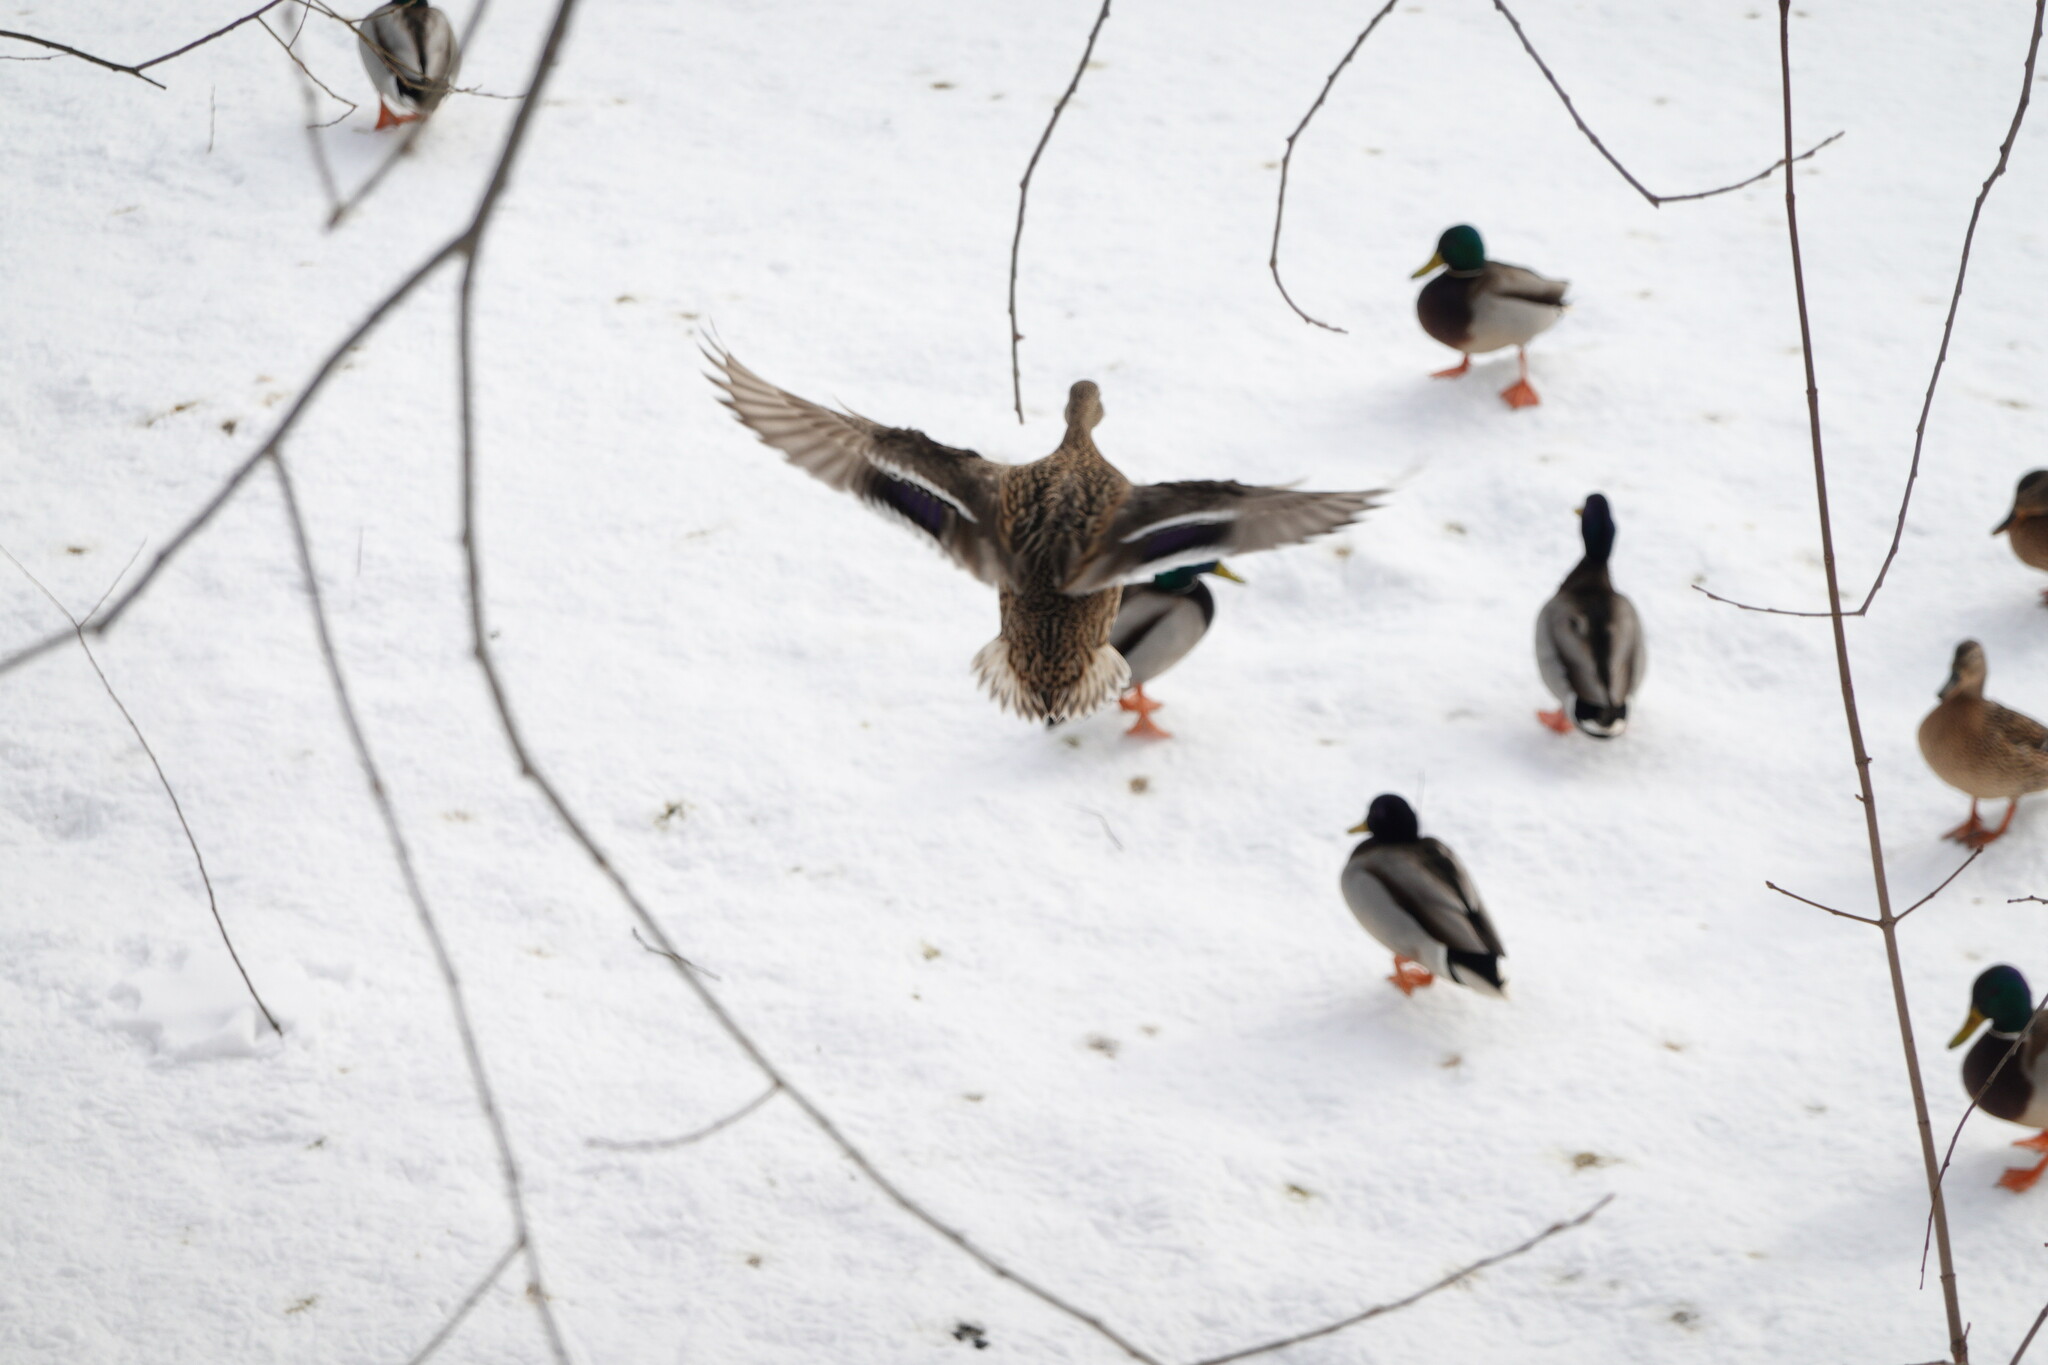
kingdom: Animalia
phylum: Chordata
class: Aves
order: Anseriformes
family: Anatidae
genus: Anas
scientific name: Anas platyrhynchos
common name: Mallard
